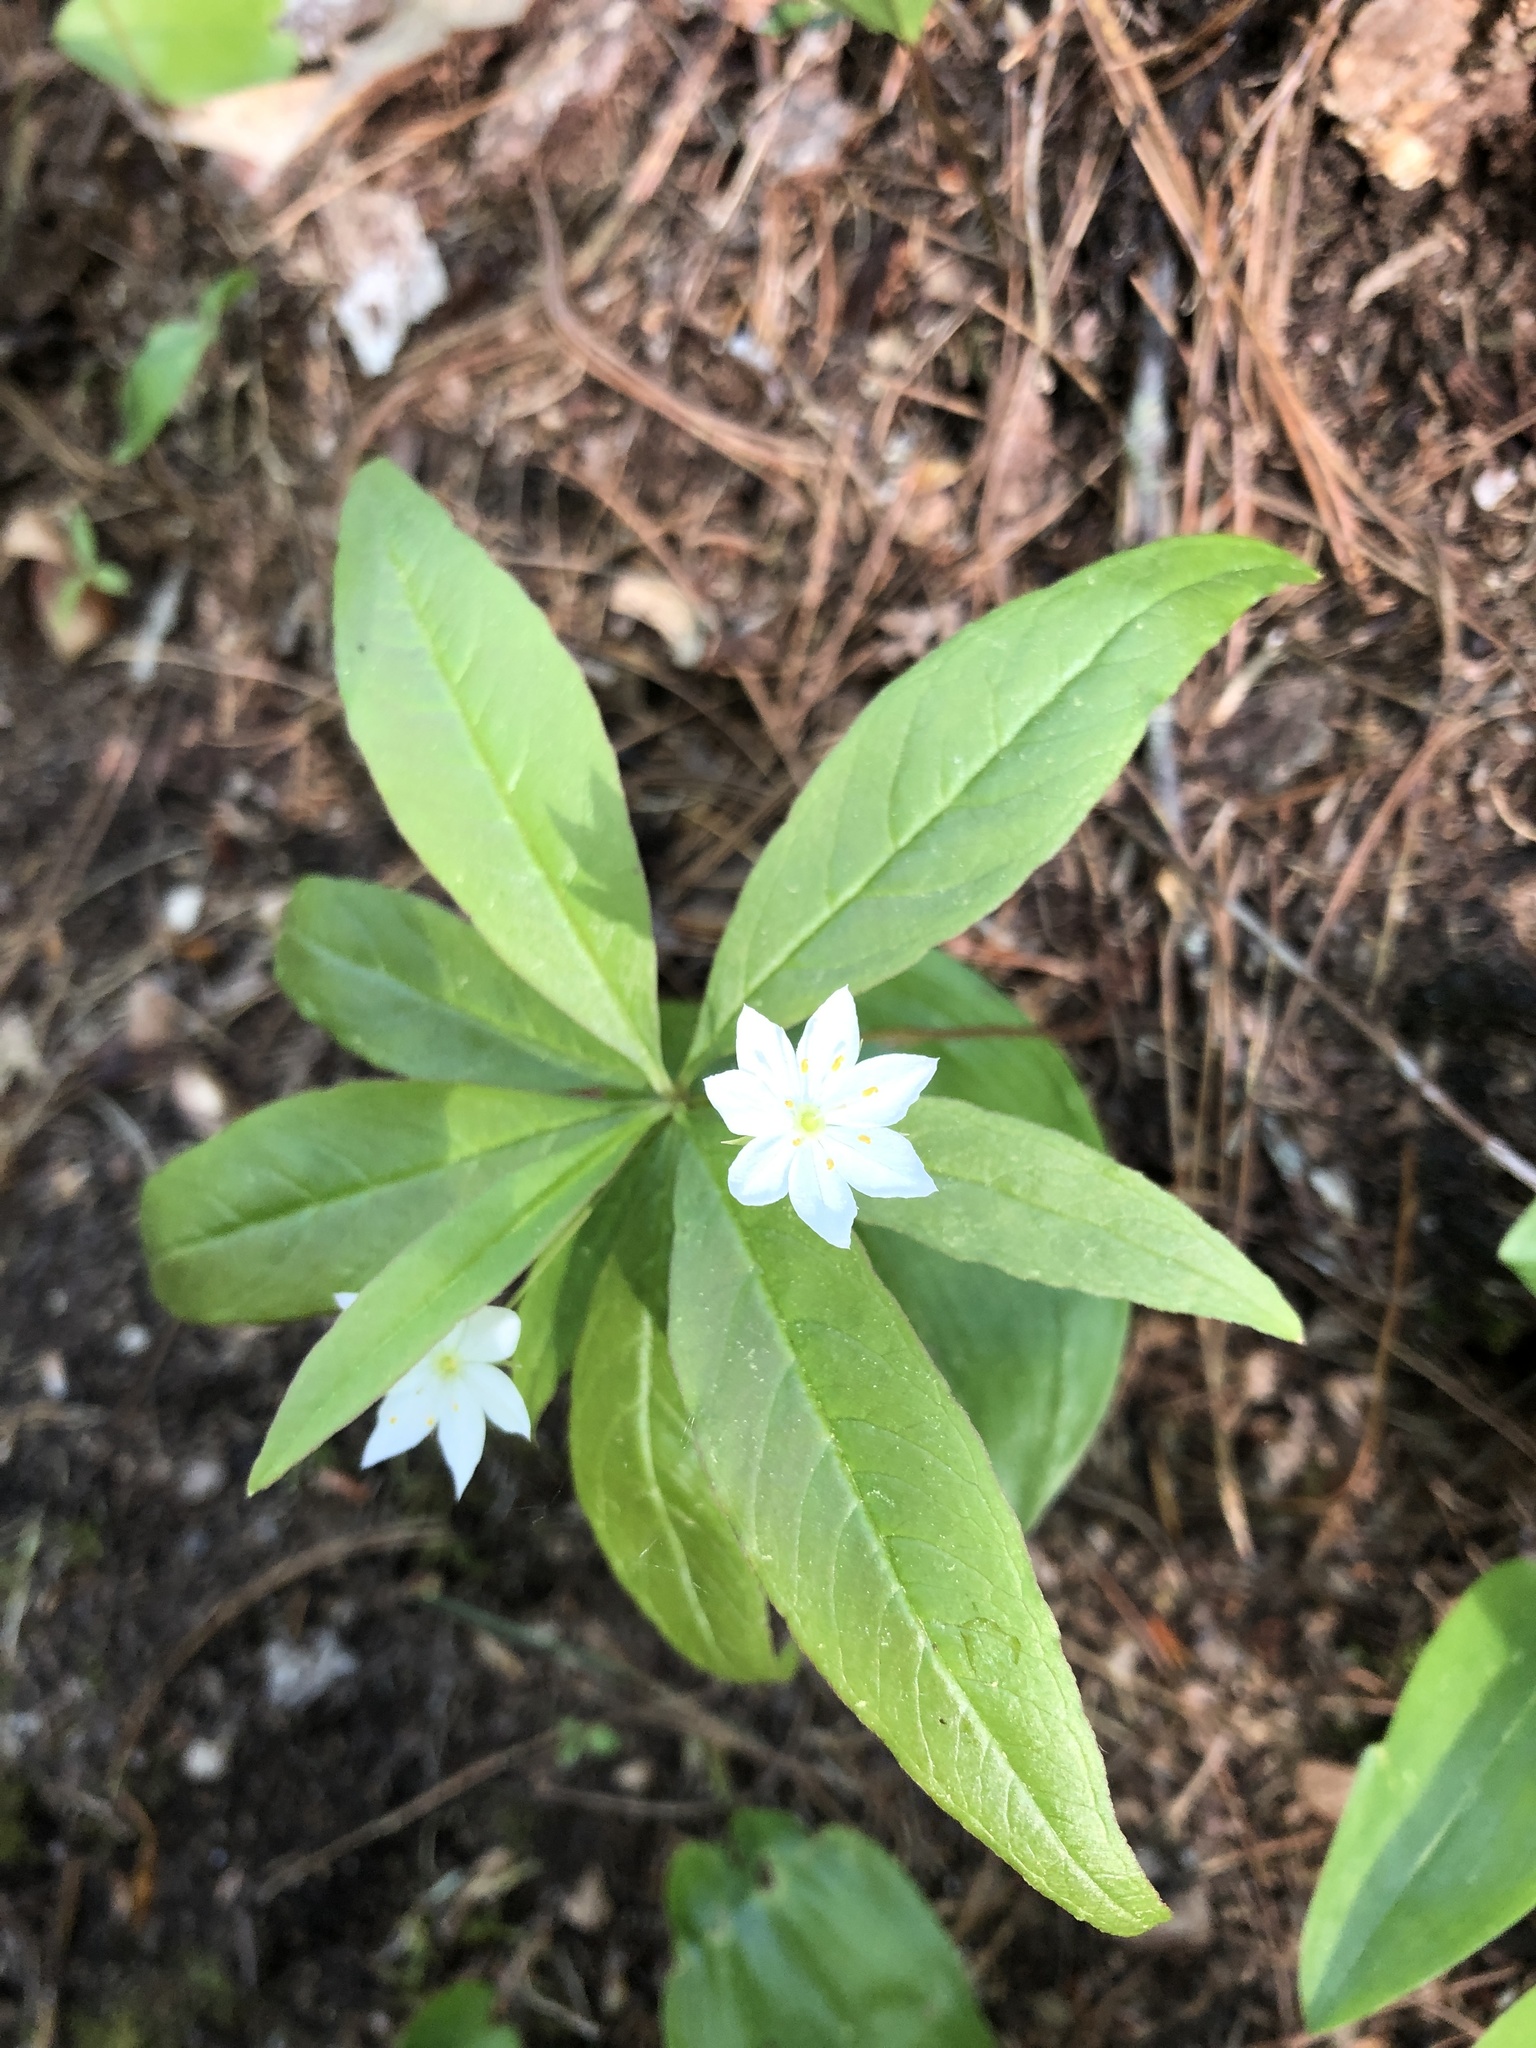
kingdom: Plantae
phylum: Tracheophyta
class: Magnoliopsida
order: Ericales
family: Primulaceae
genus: Lysimachia
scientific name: Lysimachia borealis
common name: American starflower
